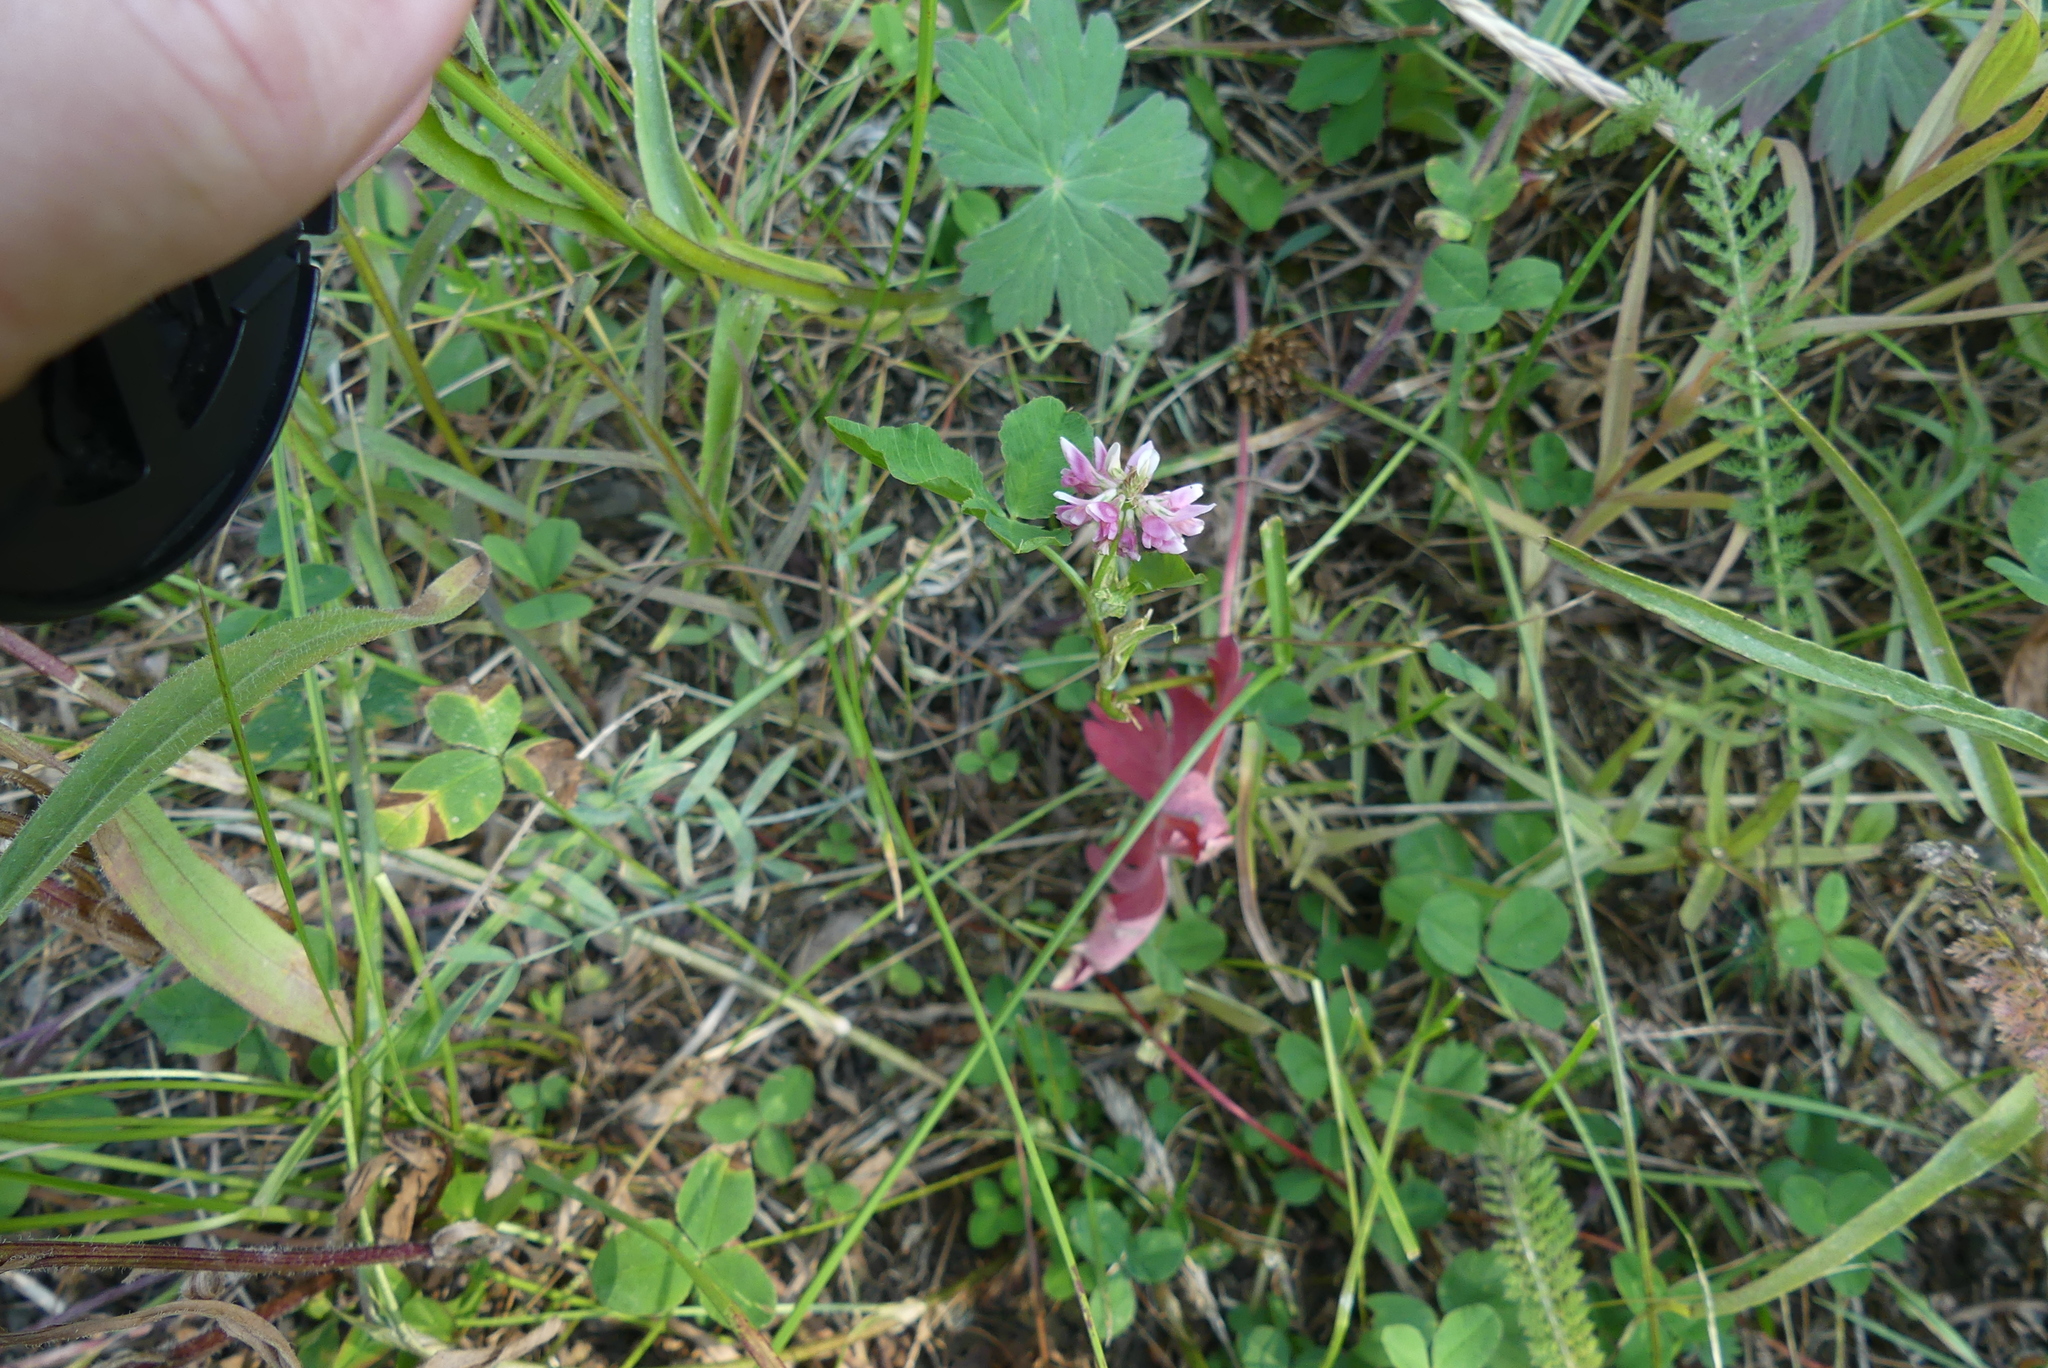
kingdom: Plantae
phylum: Tracheophyta
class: Magnoliopsida
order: Fabales
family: Fabaceae
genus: Trifolium
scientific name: Trifolium hybridum
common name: Alsike clover
